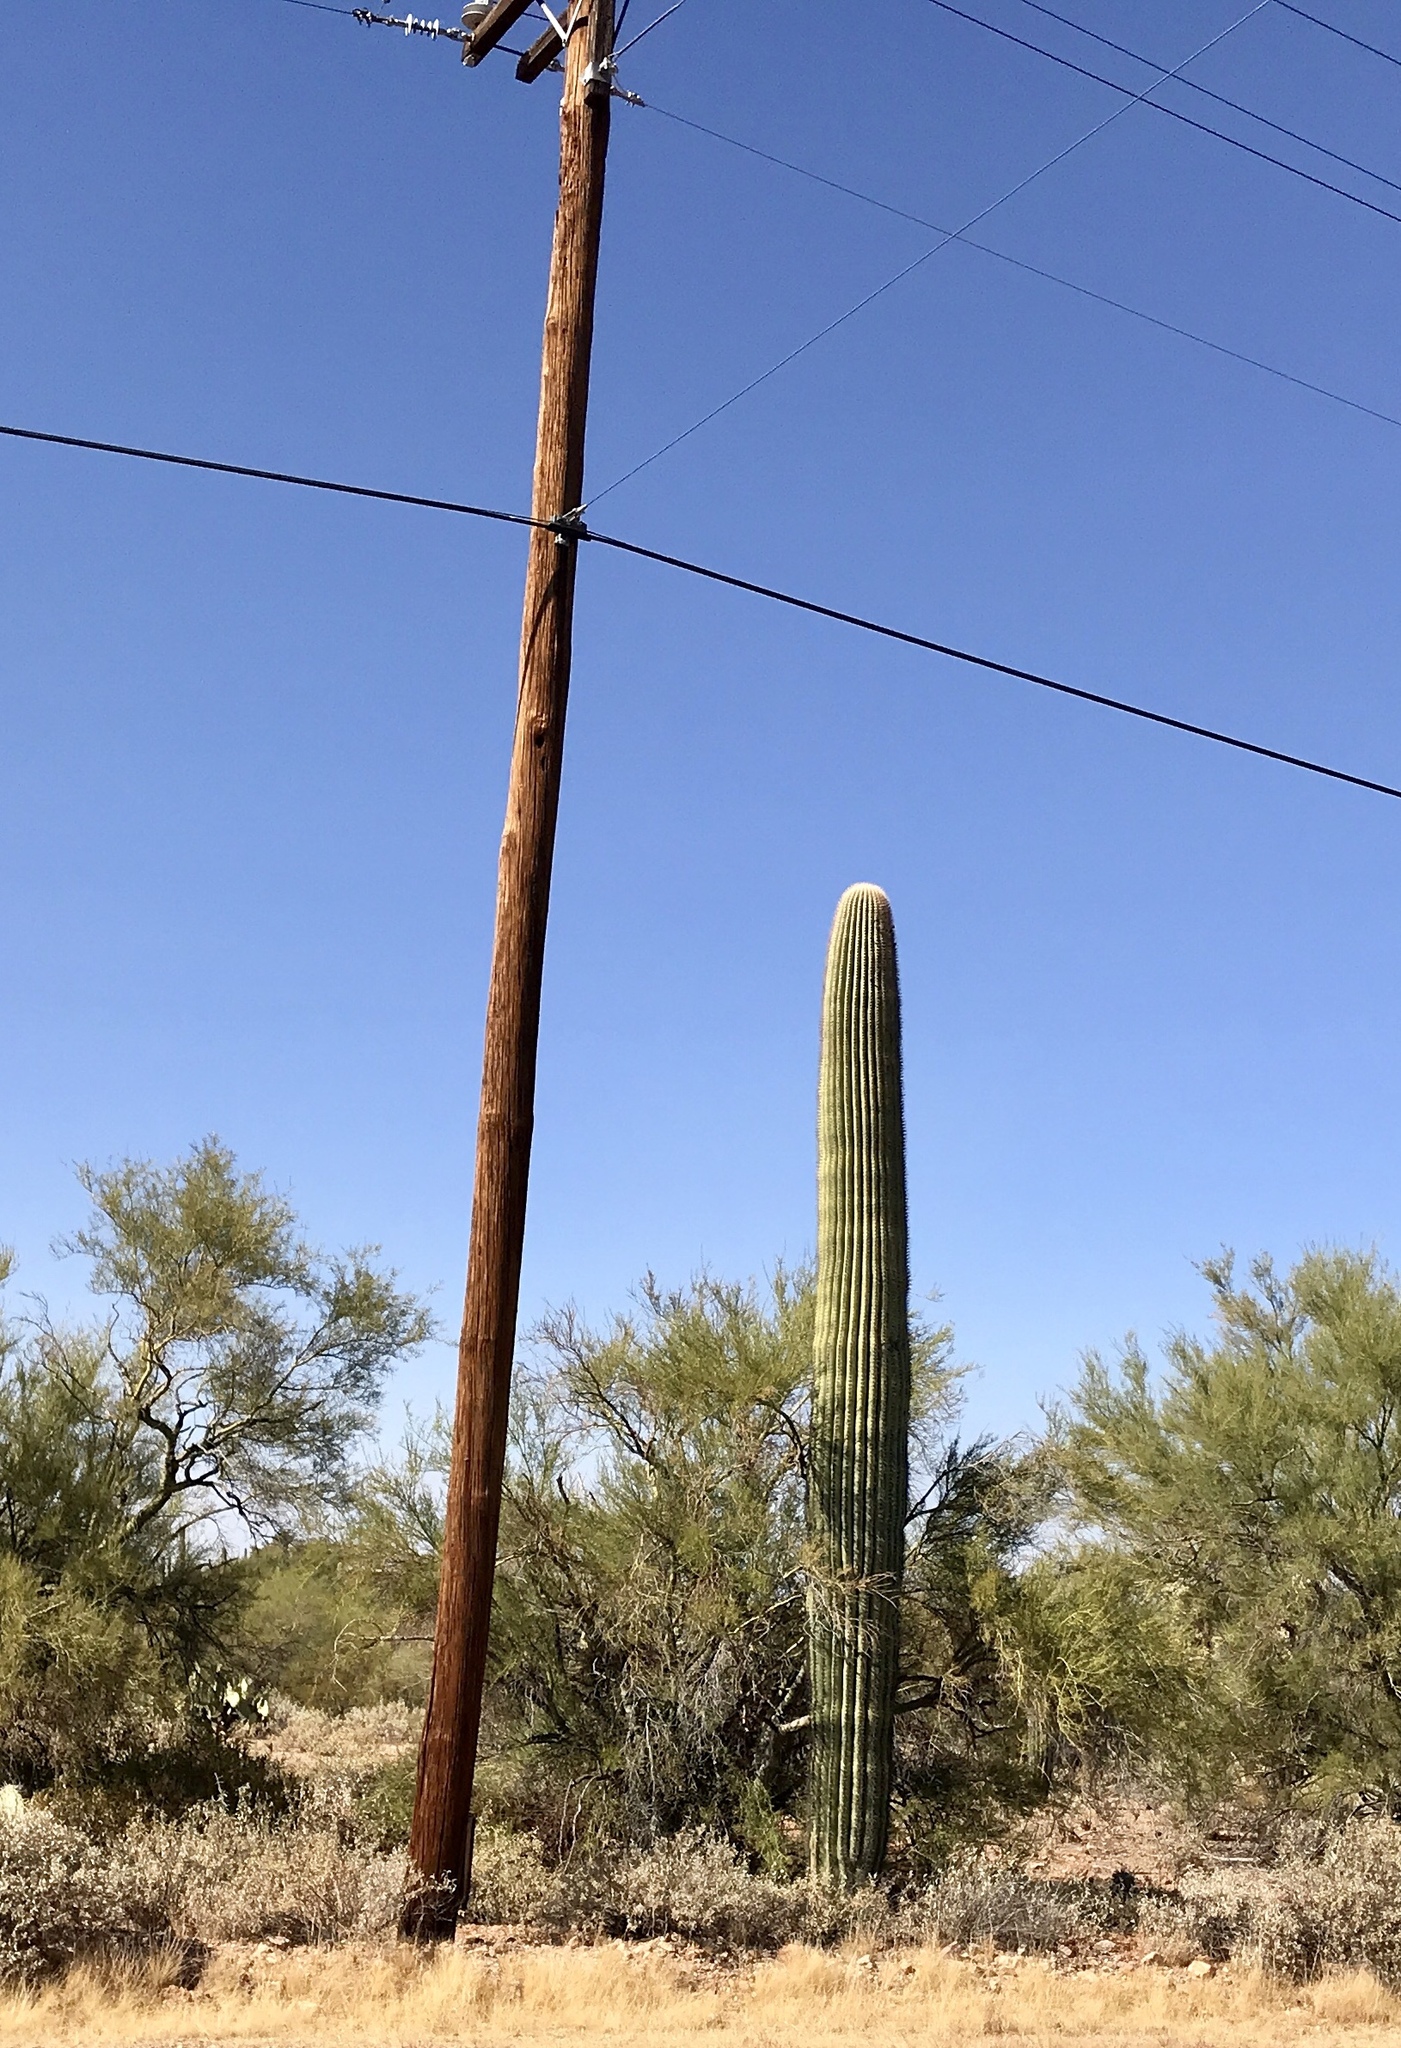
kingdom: Plantae
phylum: Tracheophyta
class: Magnoliopsida
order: Caryophyllales
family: Cactaceae
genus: Carnegiea
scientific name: Carnegiea gigantea
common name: Saguaro
